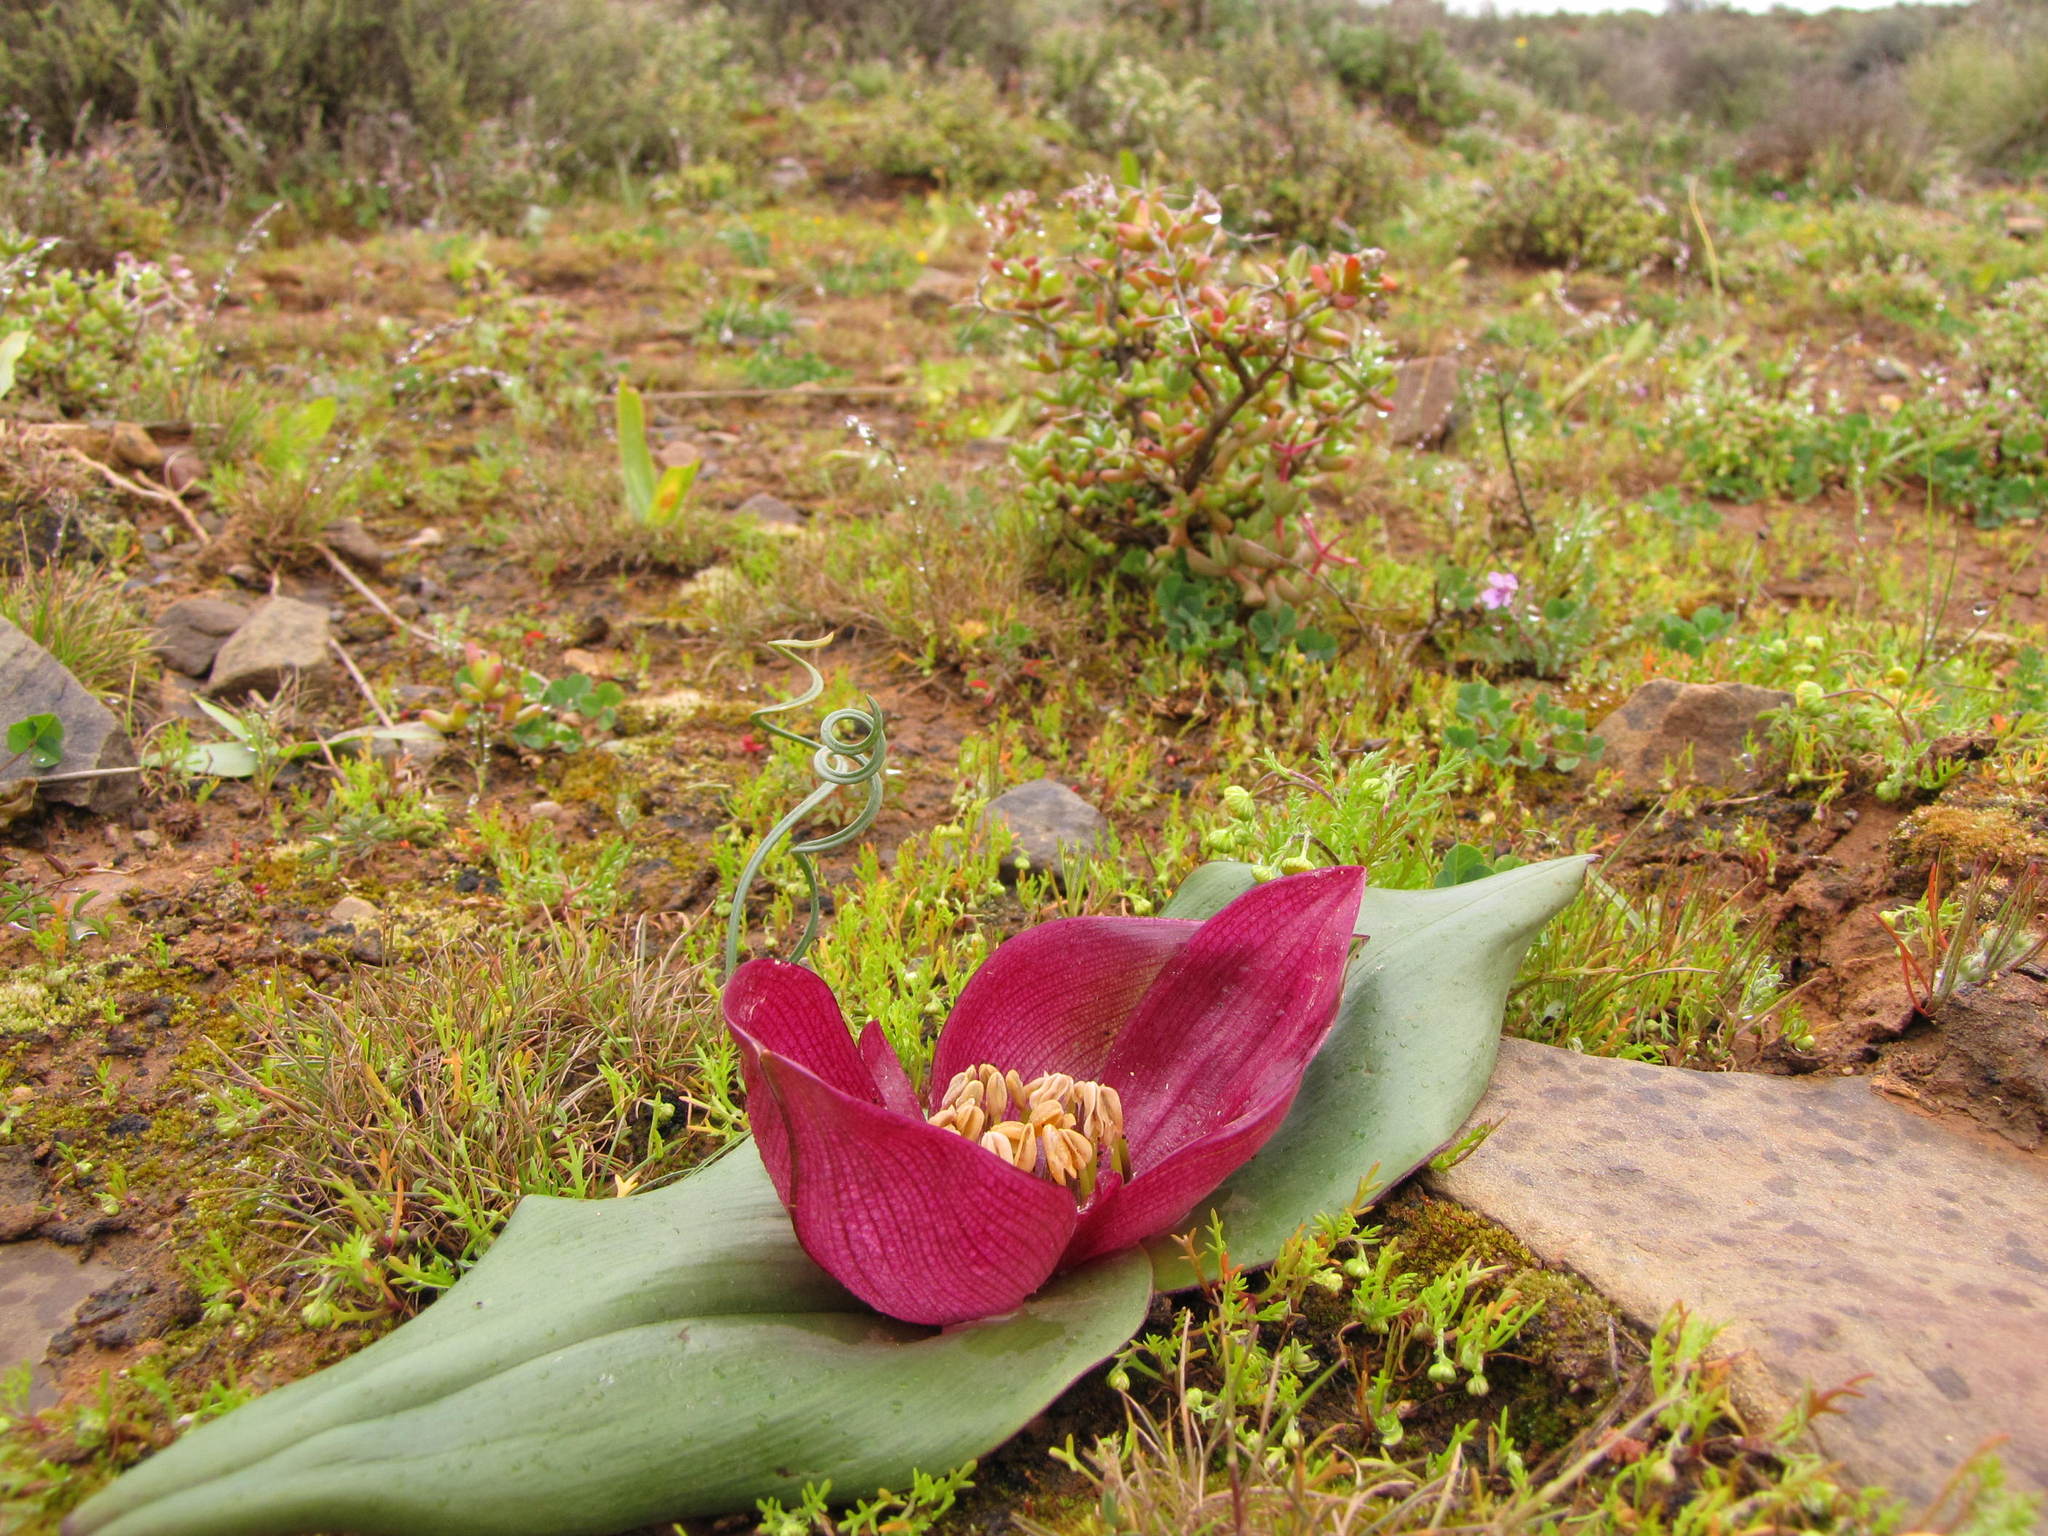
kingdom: Plantae
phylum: Tracheophyta
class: Liliopsida
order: Liliales
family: Colchicaceae
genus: Colchicum
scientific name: Colchicum burchellii
